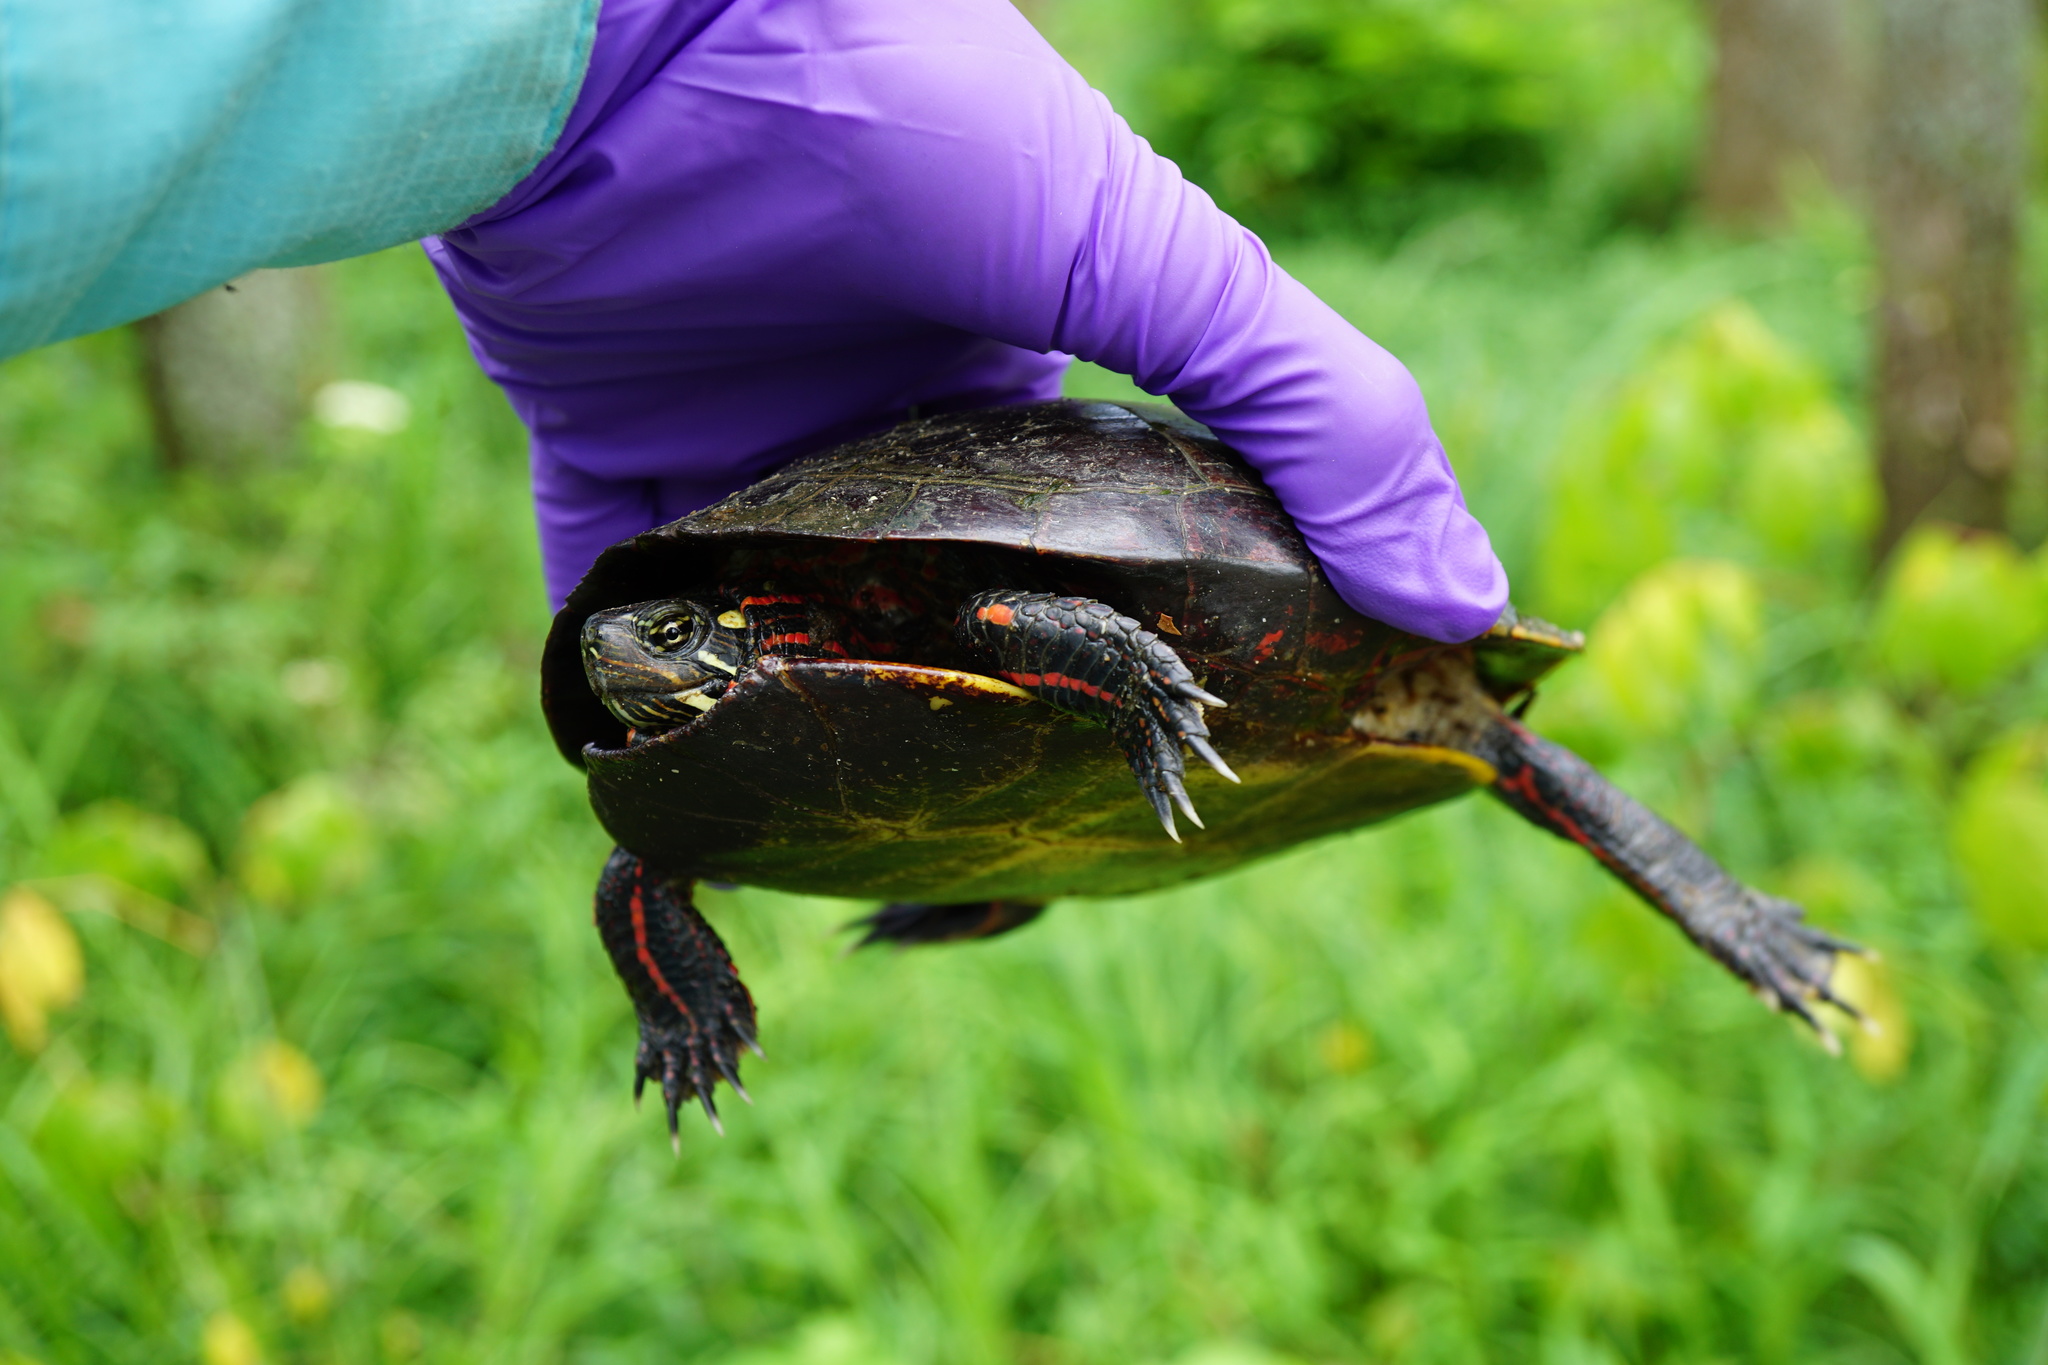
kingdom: Animalia
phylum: Chordata
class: Testudines
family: Emydidae
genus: Chrysemys
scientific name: Chrysemys picta
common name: Painted turtle
